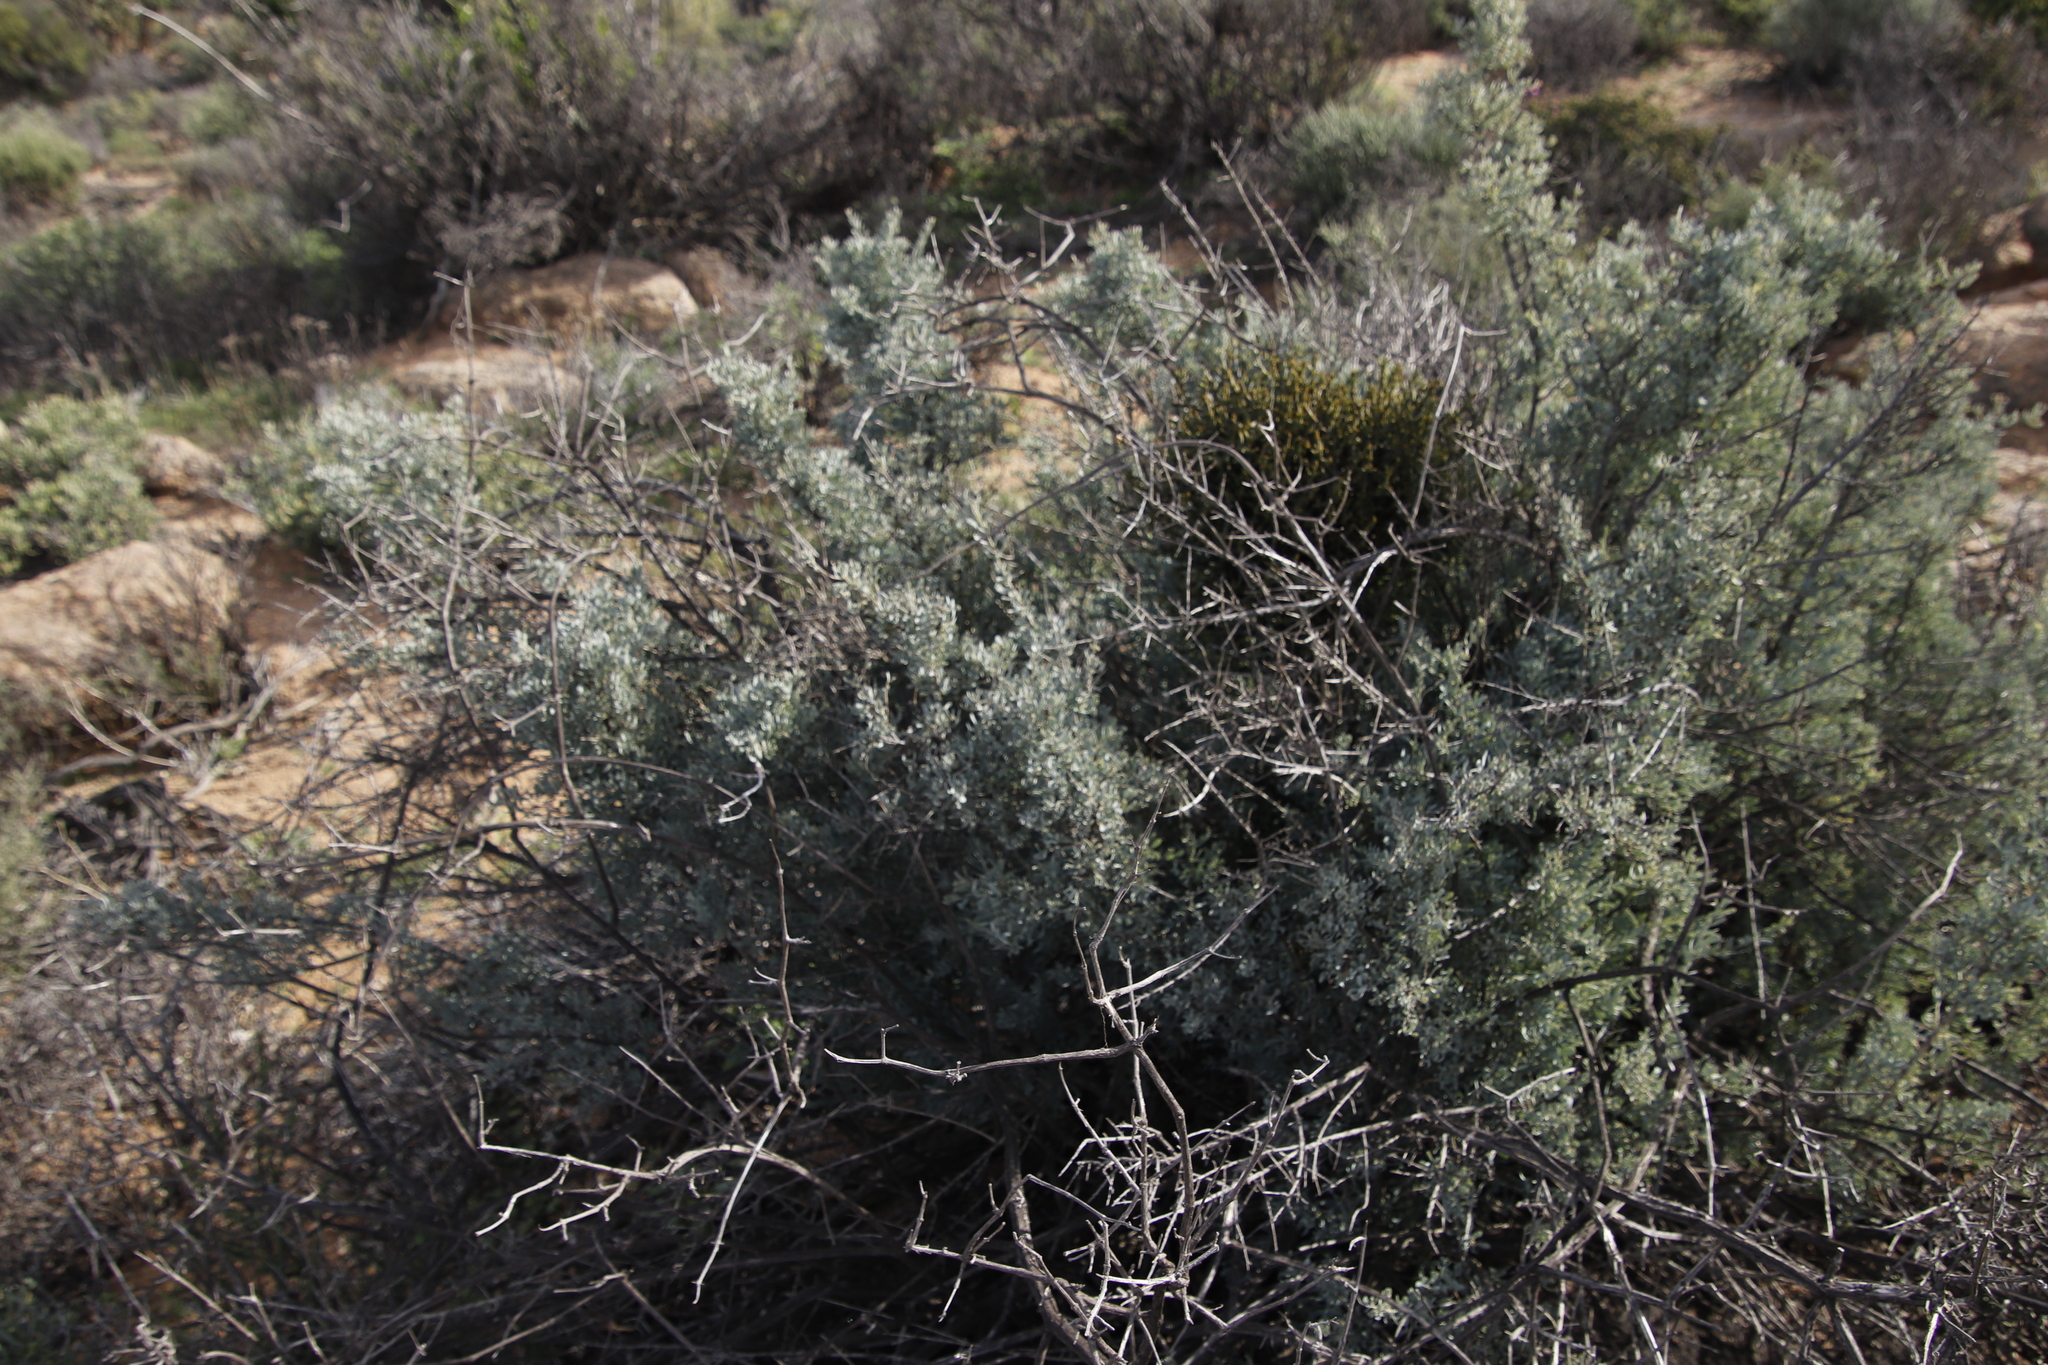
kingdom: Plantae
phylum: Tracheophyta
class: Magnoliopsida
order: Ericales
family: Ebenaceae
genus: Diospyros
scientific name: Diospyros pubescens
